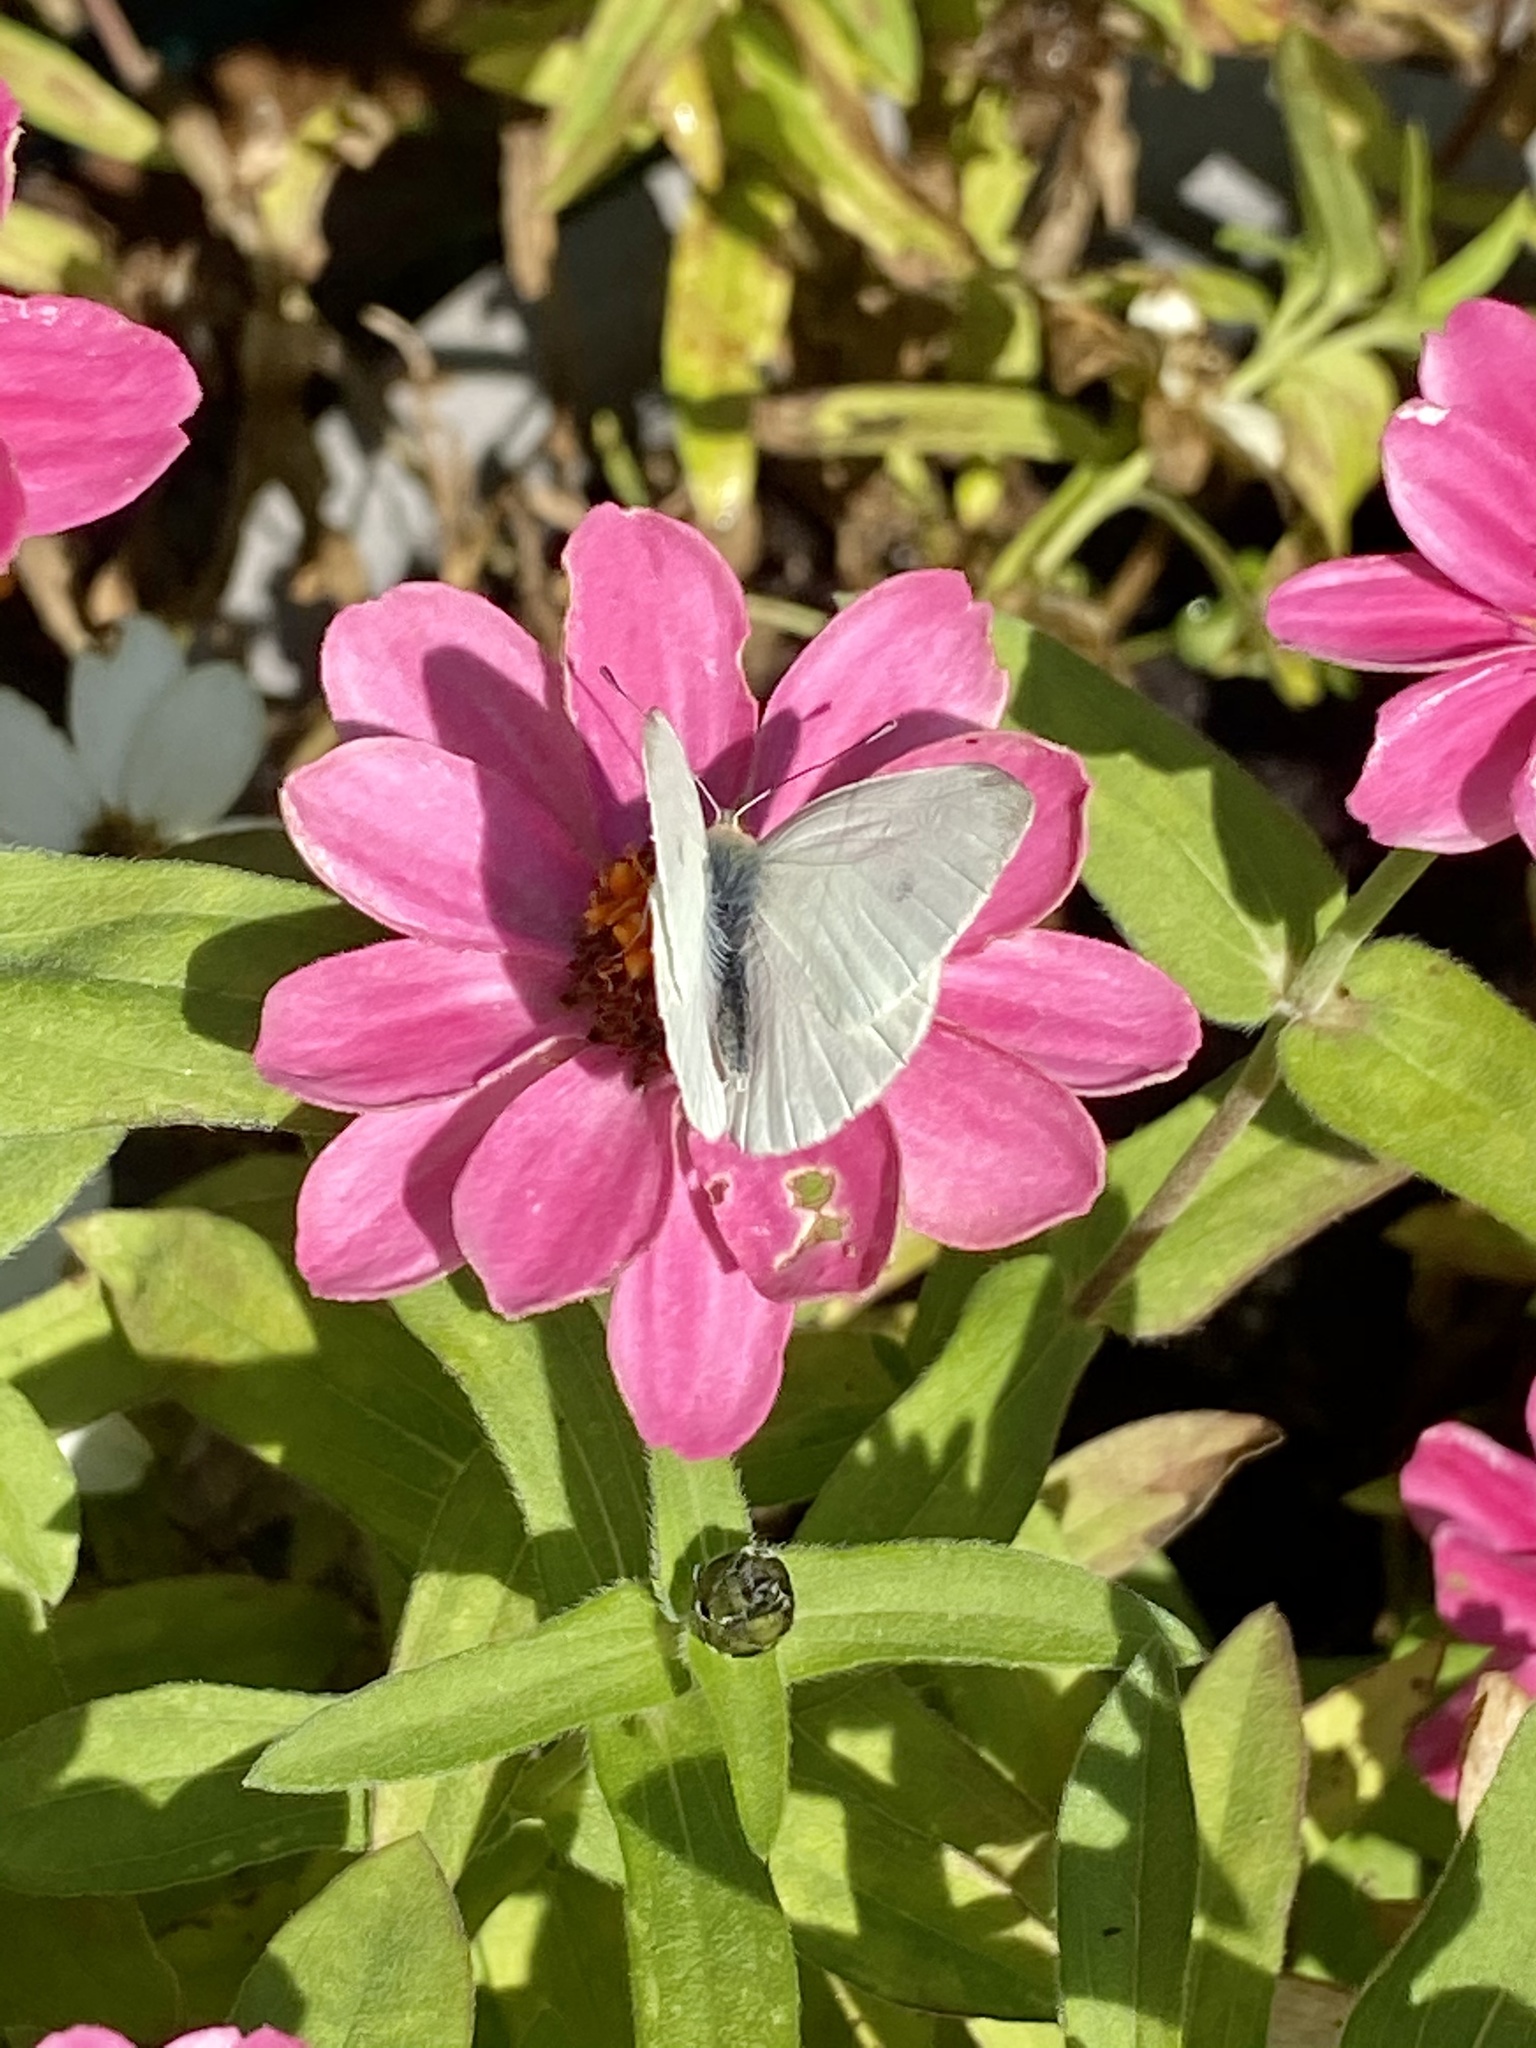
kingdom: Animalia
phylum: Arthropoda
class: Insecta
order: Lepidoptera
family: Pieridae
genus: Pieris
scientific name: Pieris rapae
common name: Small white
